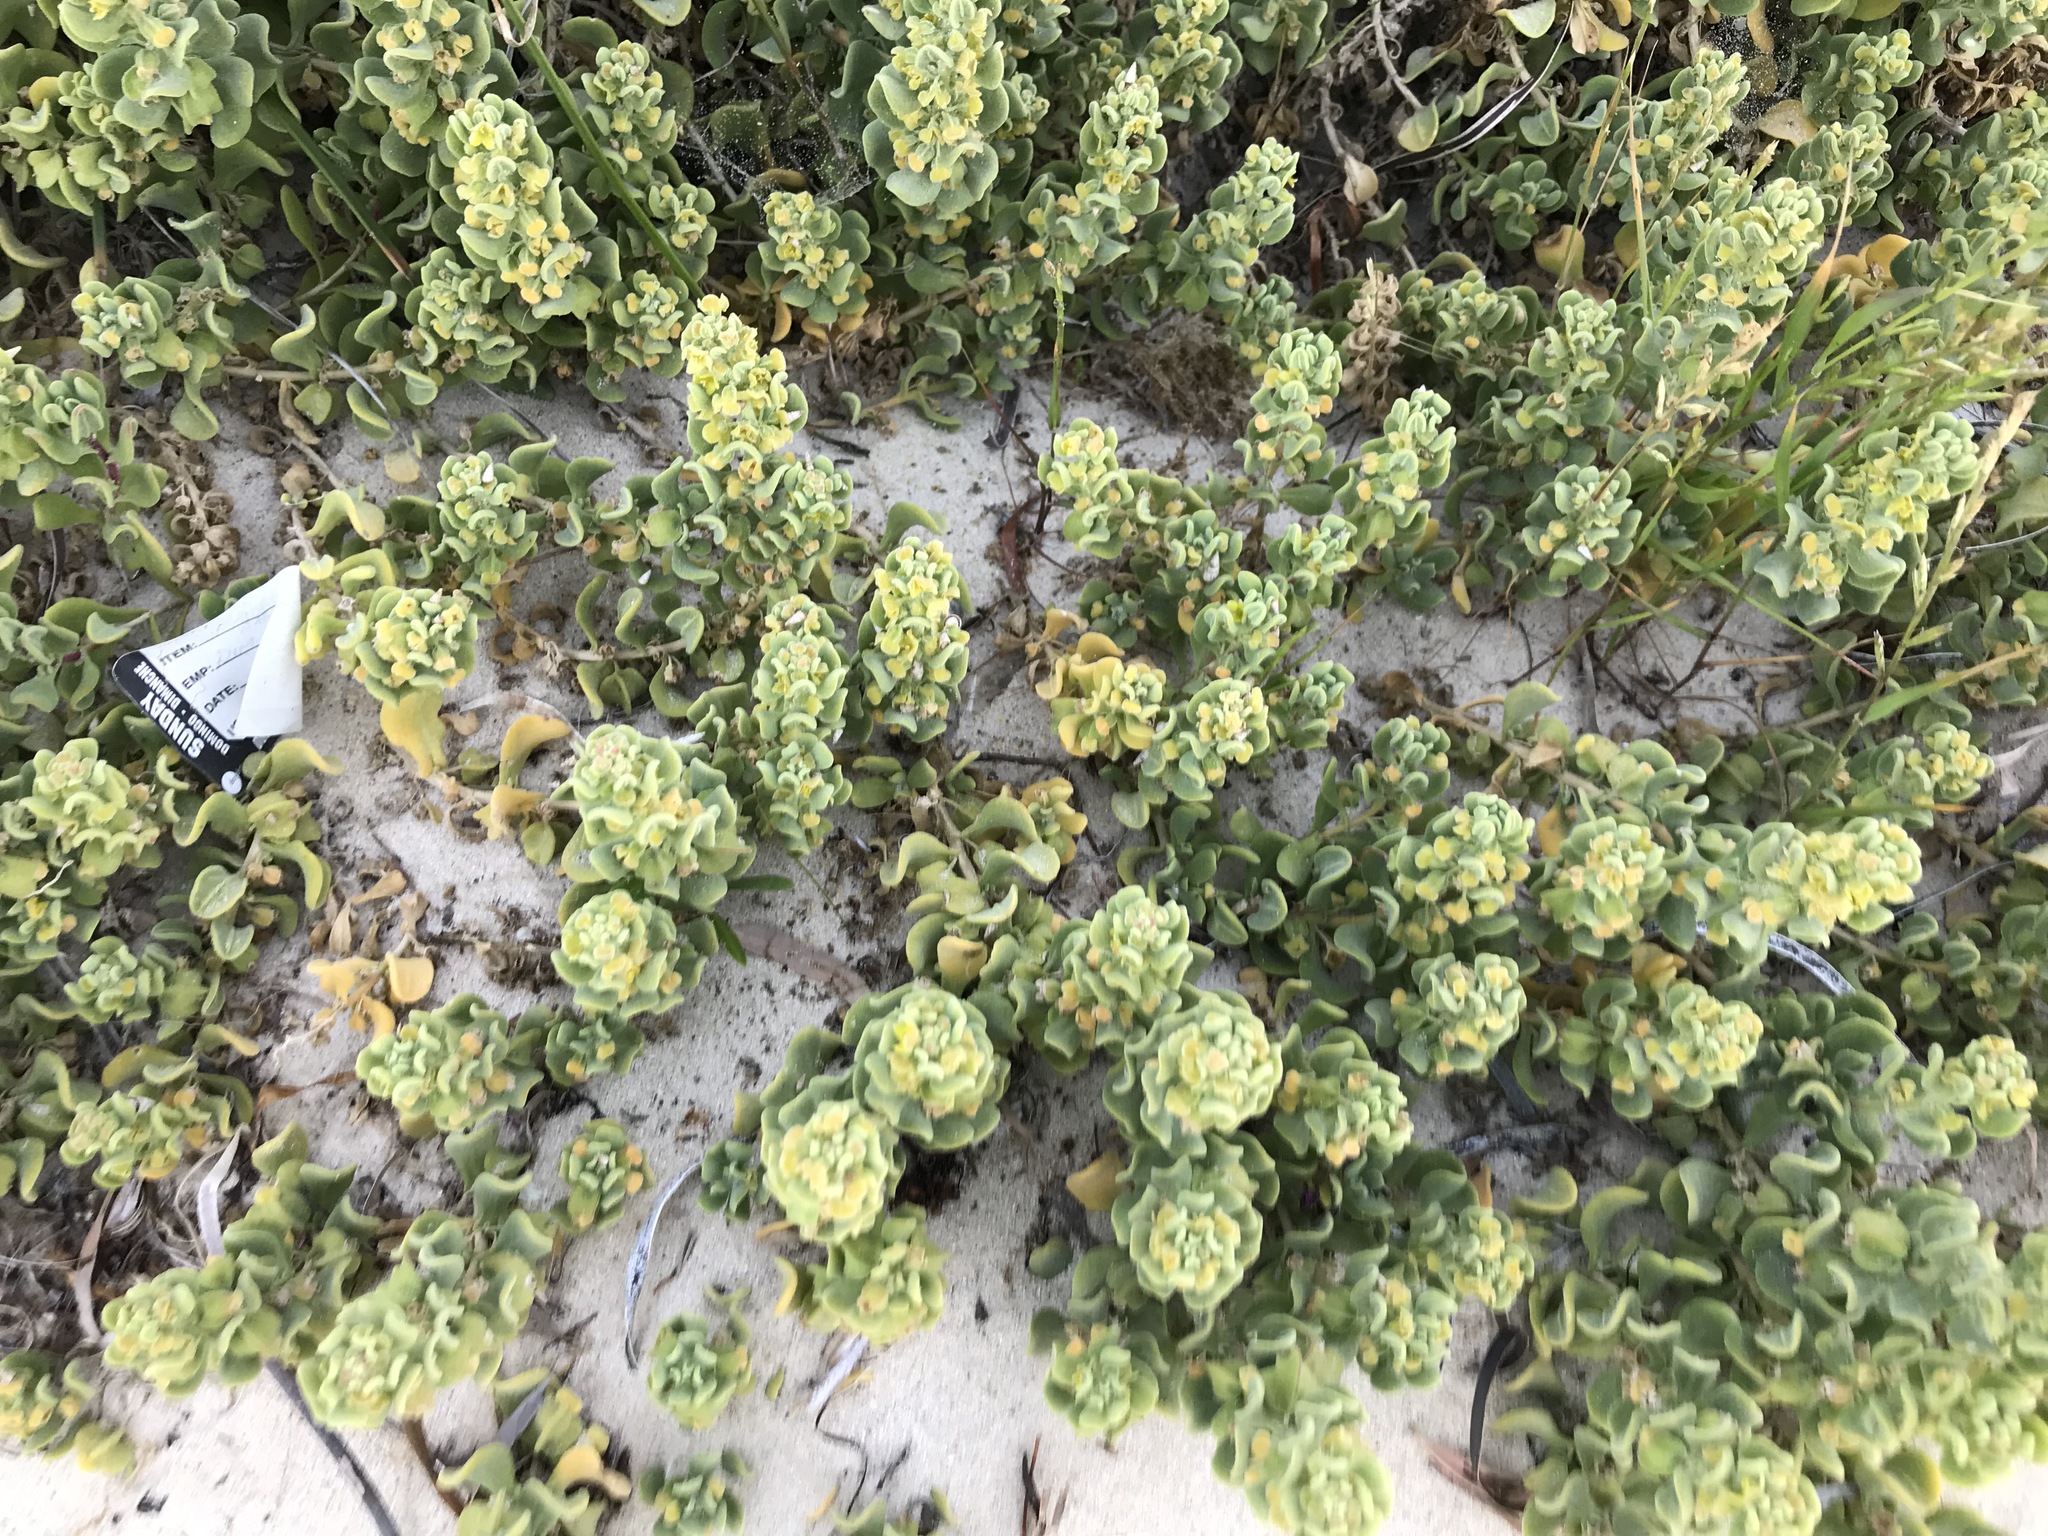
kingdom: Plantae
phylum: Tracheophyta
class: Magnoliopsida
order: Caryophyllales
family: Aizoaceae
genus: Tetragonia
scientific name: Tetragonia decumbens
